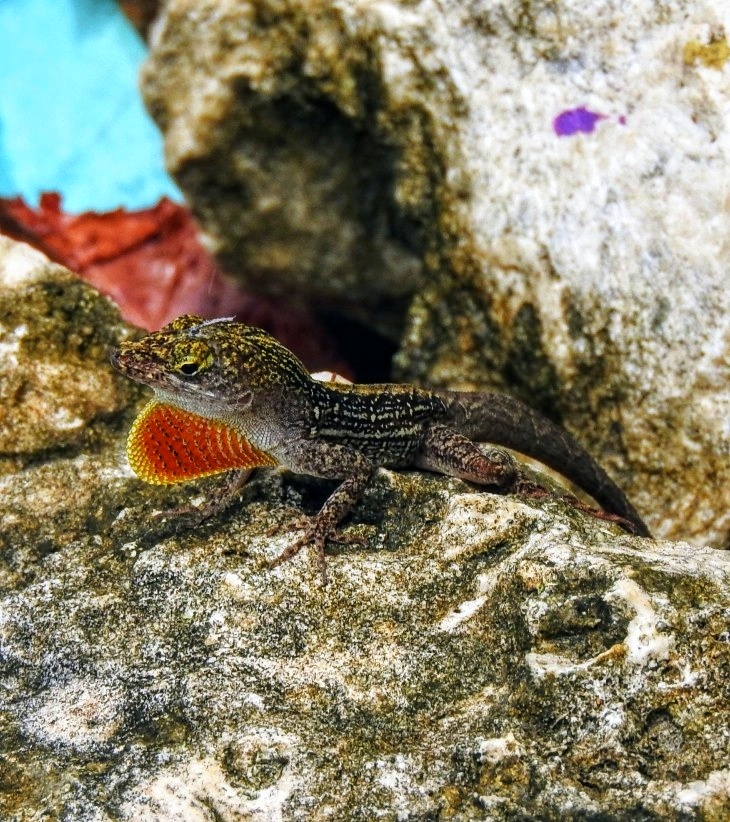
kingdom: Animalia
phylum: Chordata
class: Squamata
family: Dactyloidae
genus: Anolis
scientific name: Anolis sagrei
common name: Brown anole
